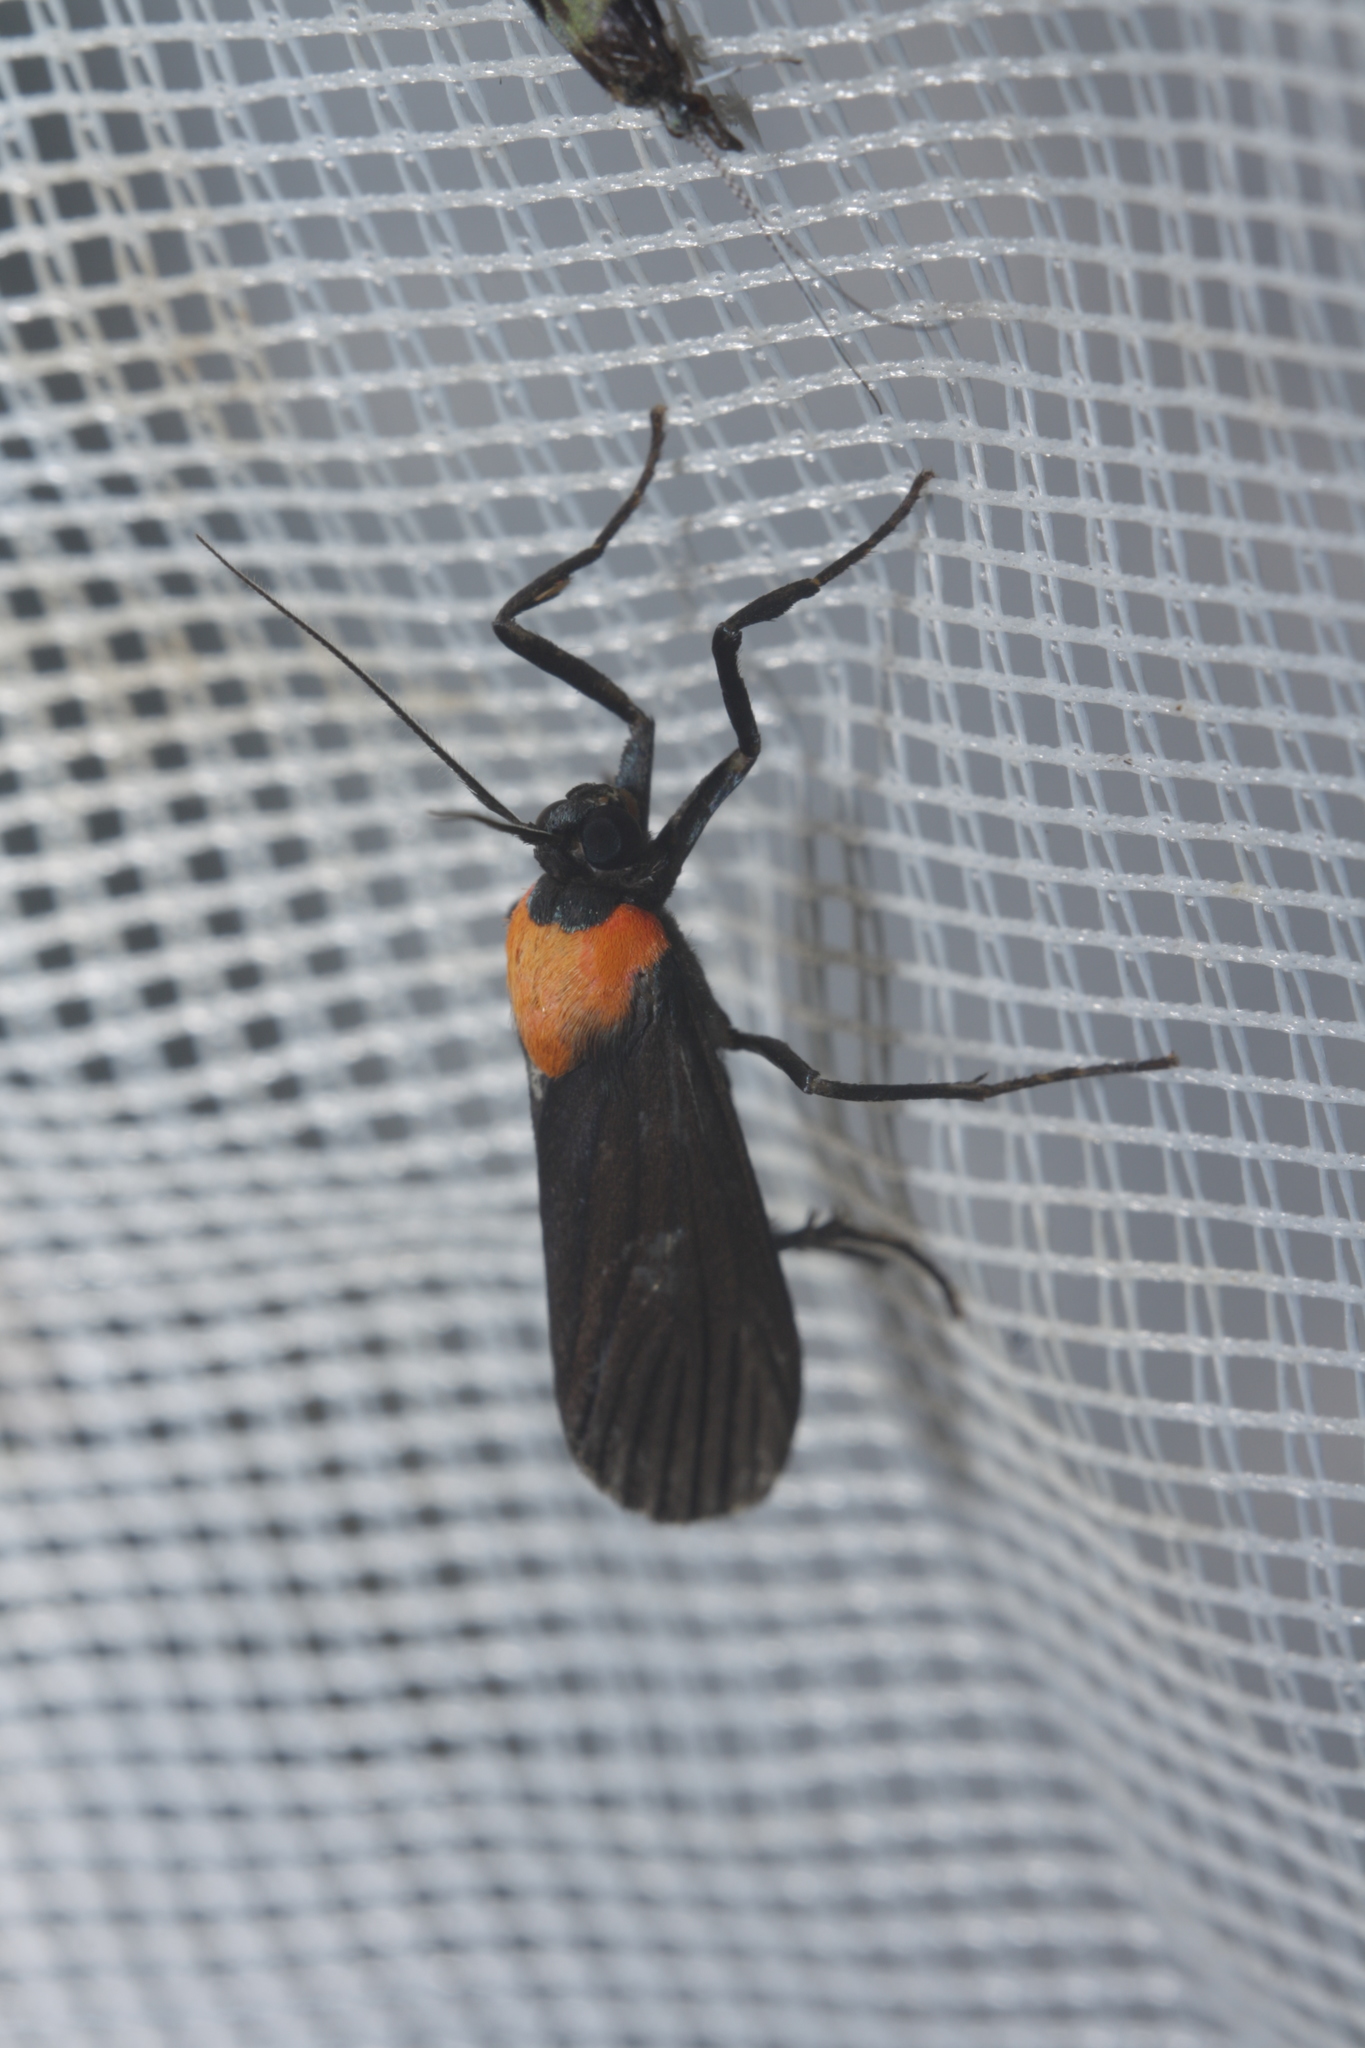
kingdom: Animalia
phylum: Arthropoda
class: Insecta
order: Lepidoptera
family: Erebidae
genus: Balbura
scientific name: Balbura intervenata
